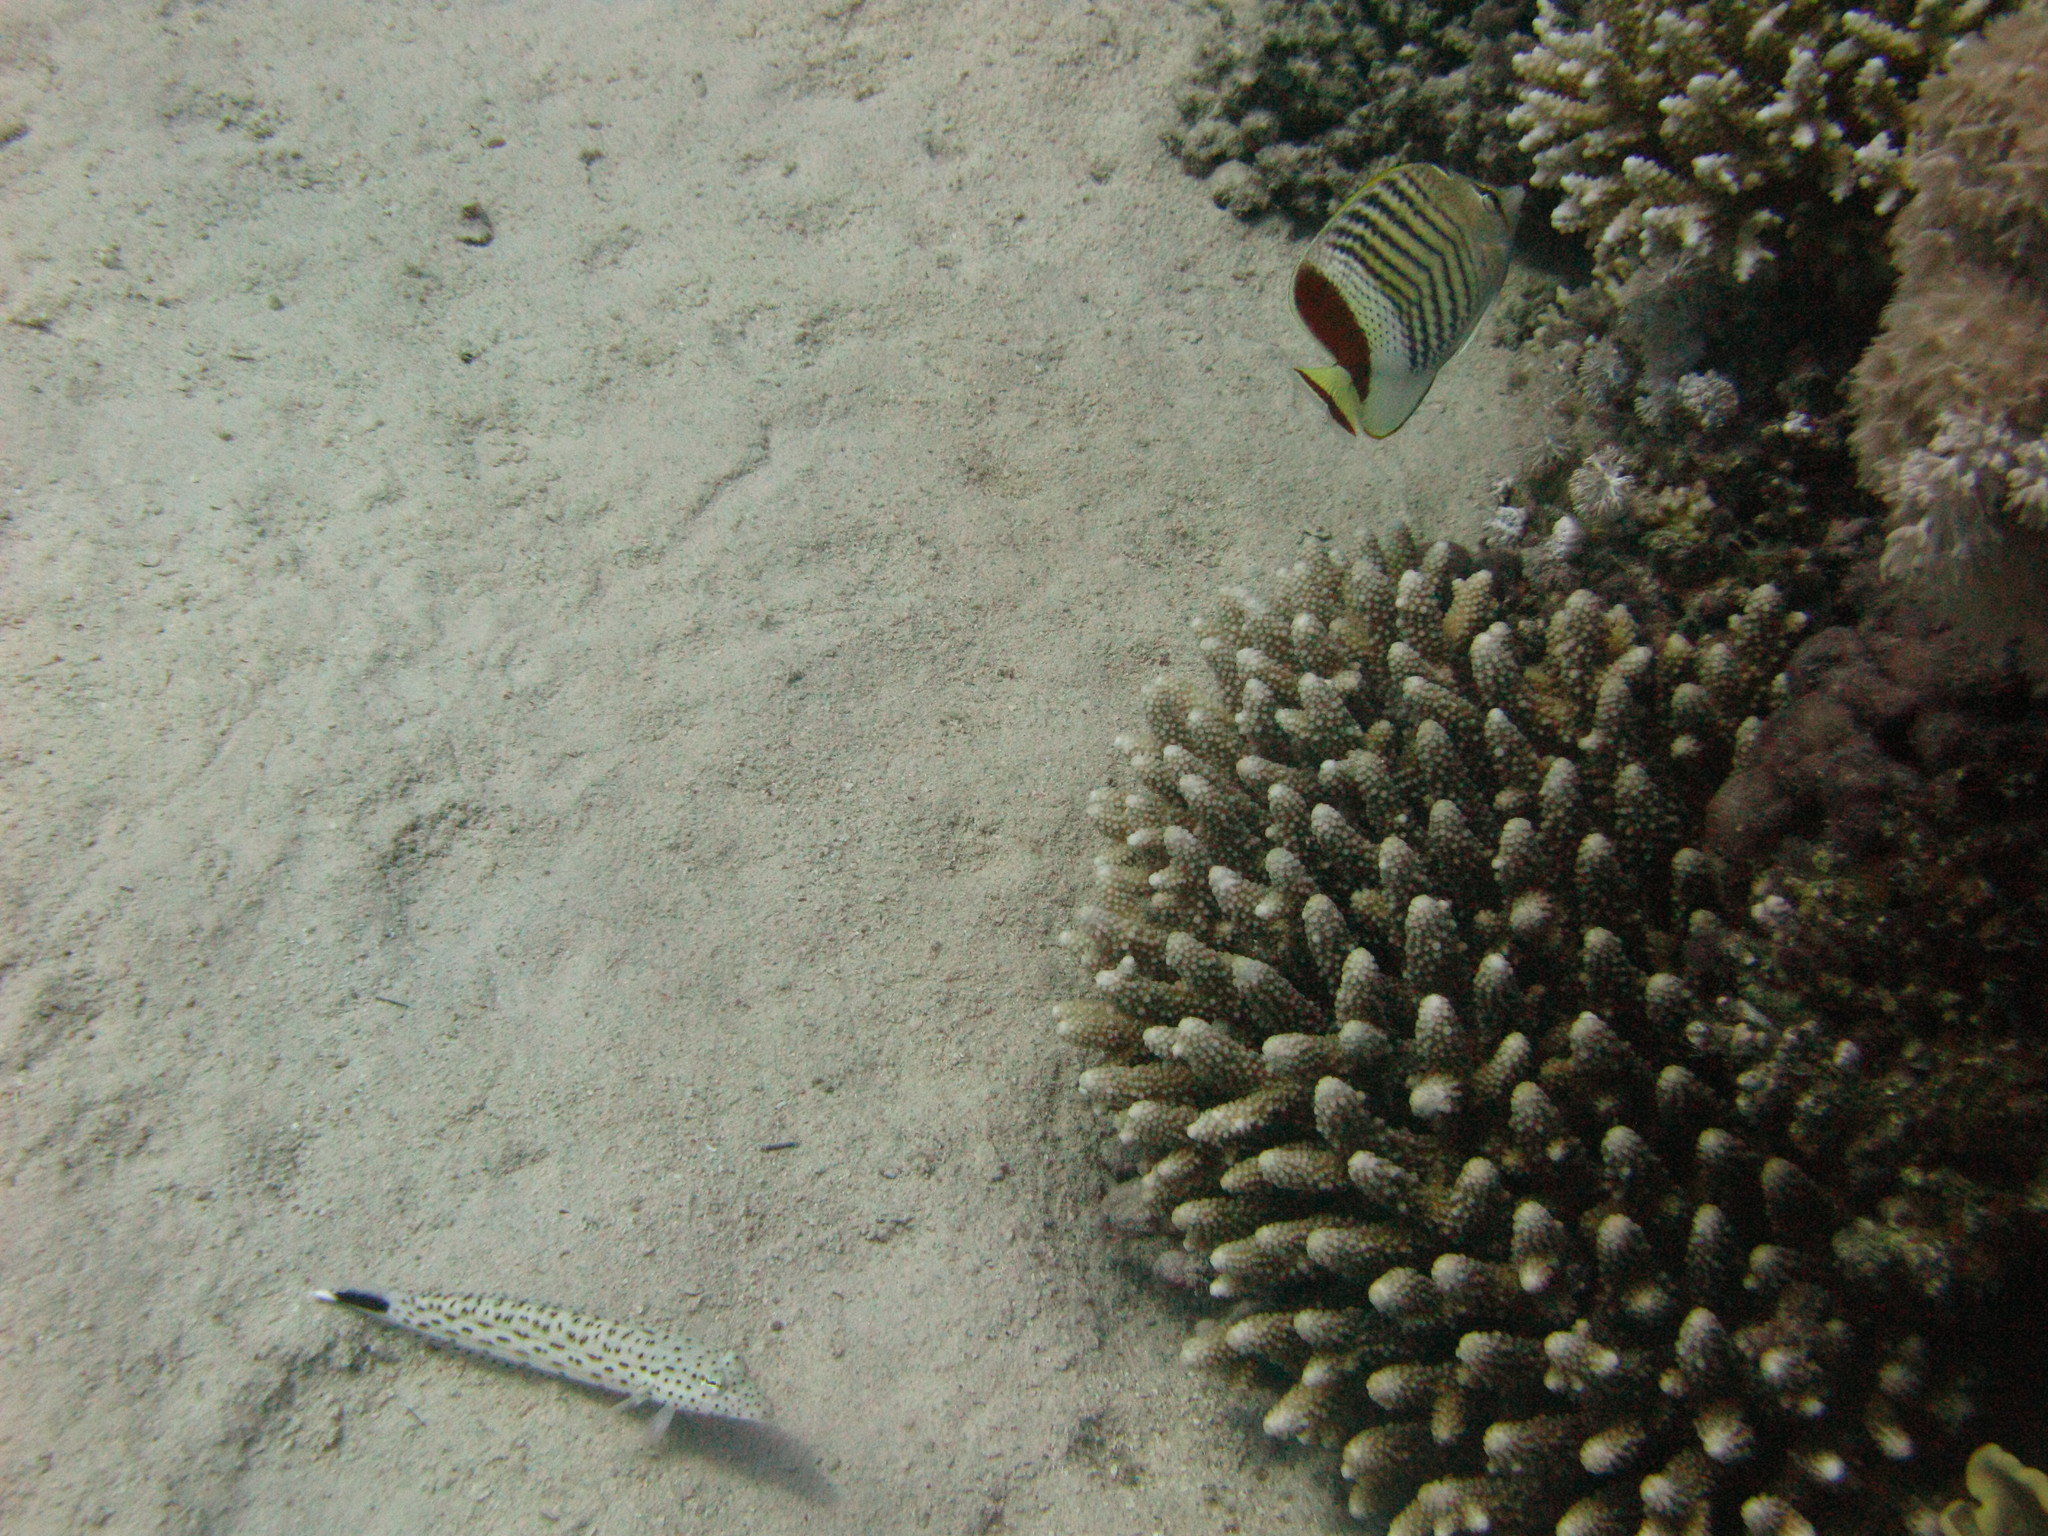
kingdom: Animalia
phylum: Chordata
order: Perciformes
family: Pinguipedidae
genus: Parapercis
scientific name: Parapercis hexophtalma
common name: Speckled sandperch
